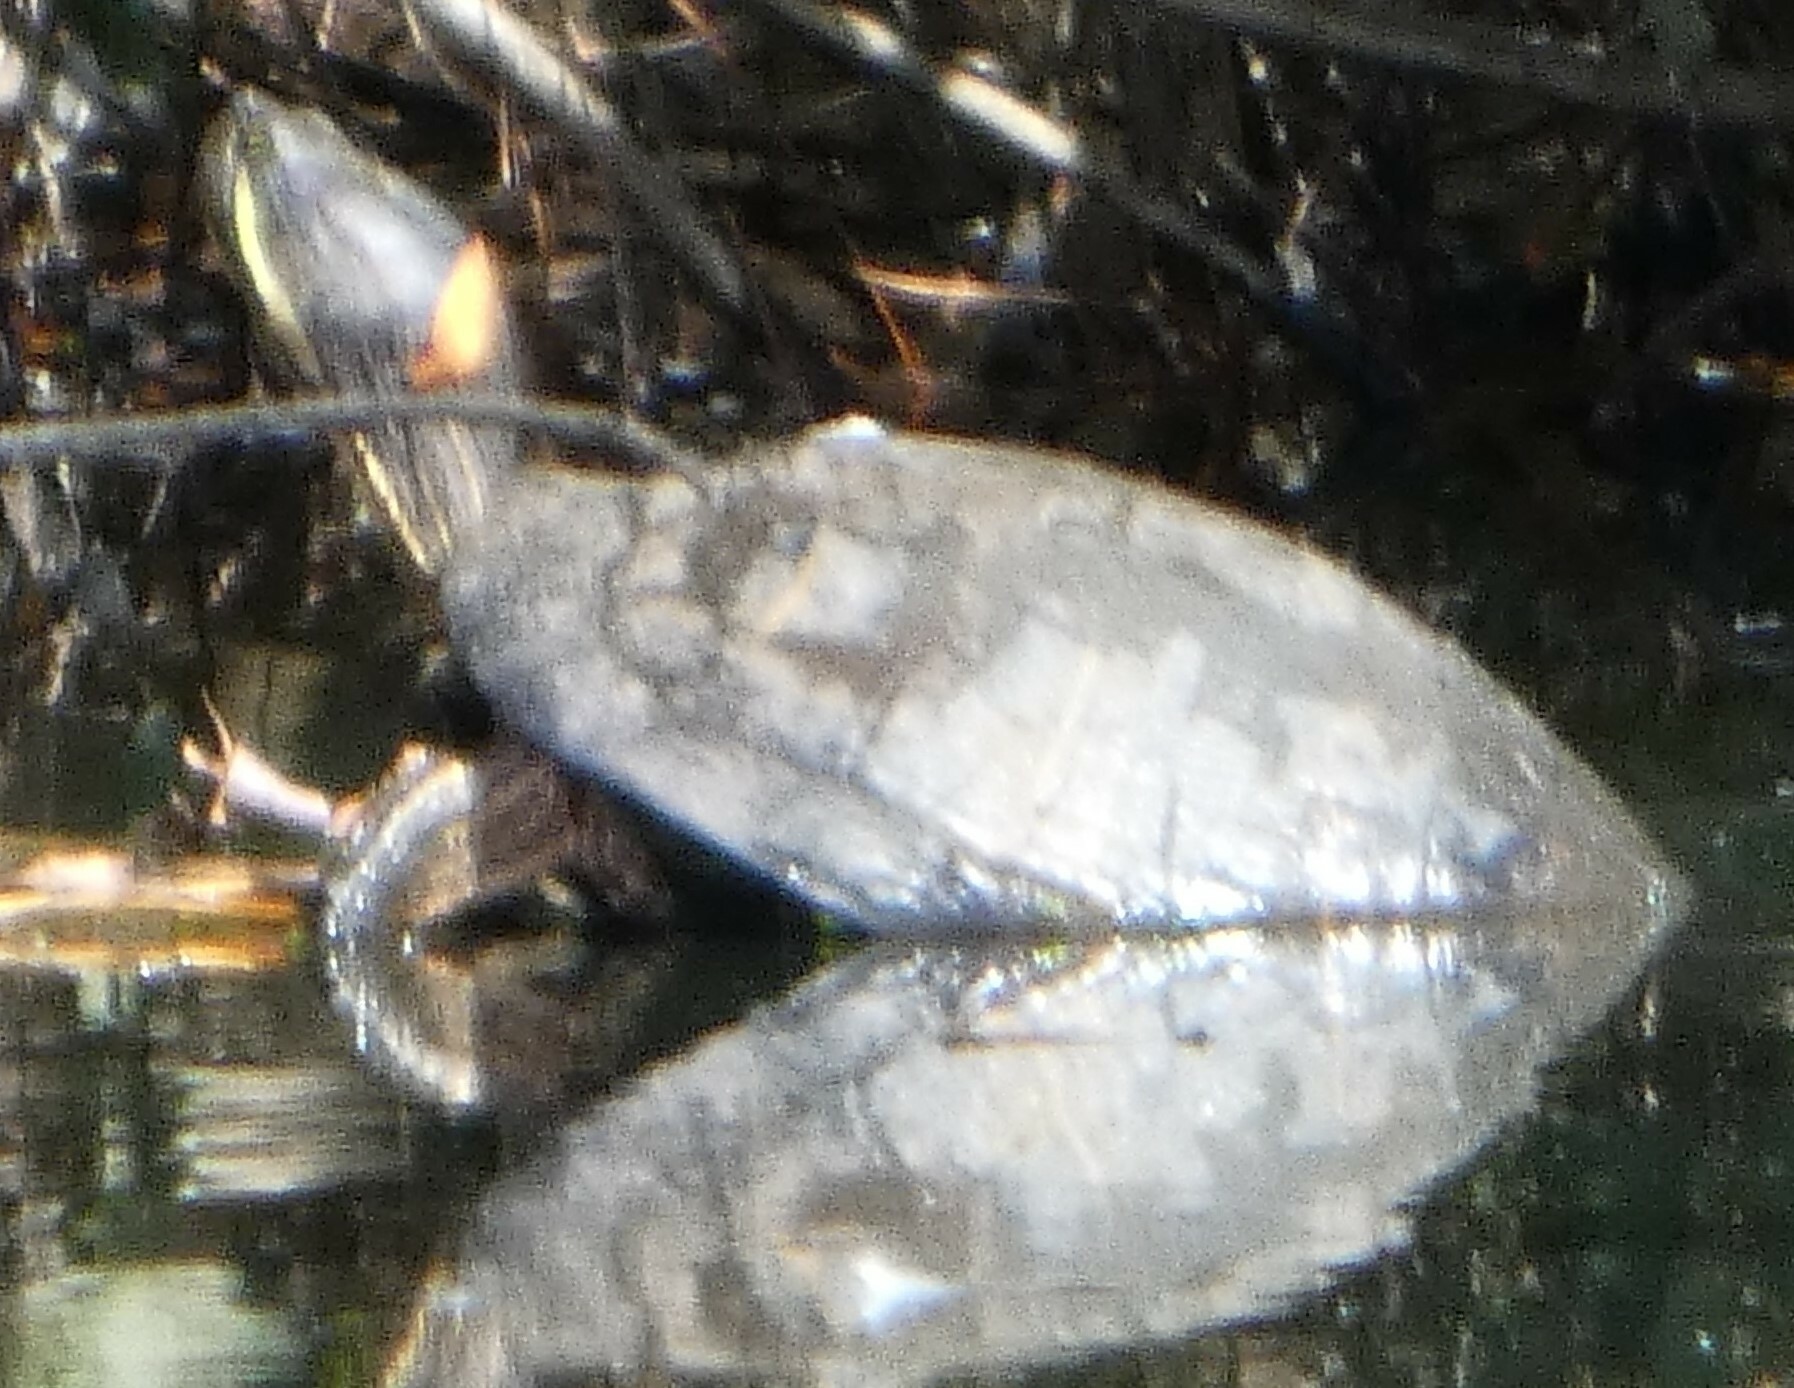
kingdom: Animalia
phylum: Chordata
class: Testudines
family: Emydidae
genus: Trachemys
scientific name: Trachemys scripta
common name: Slider
